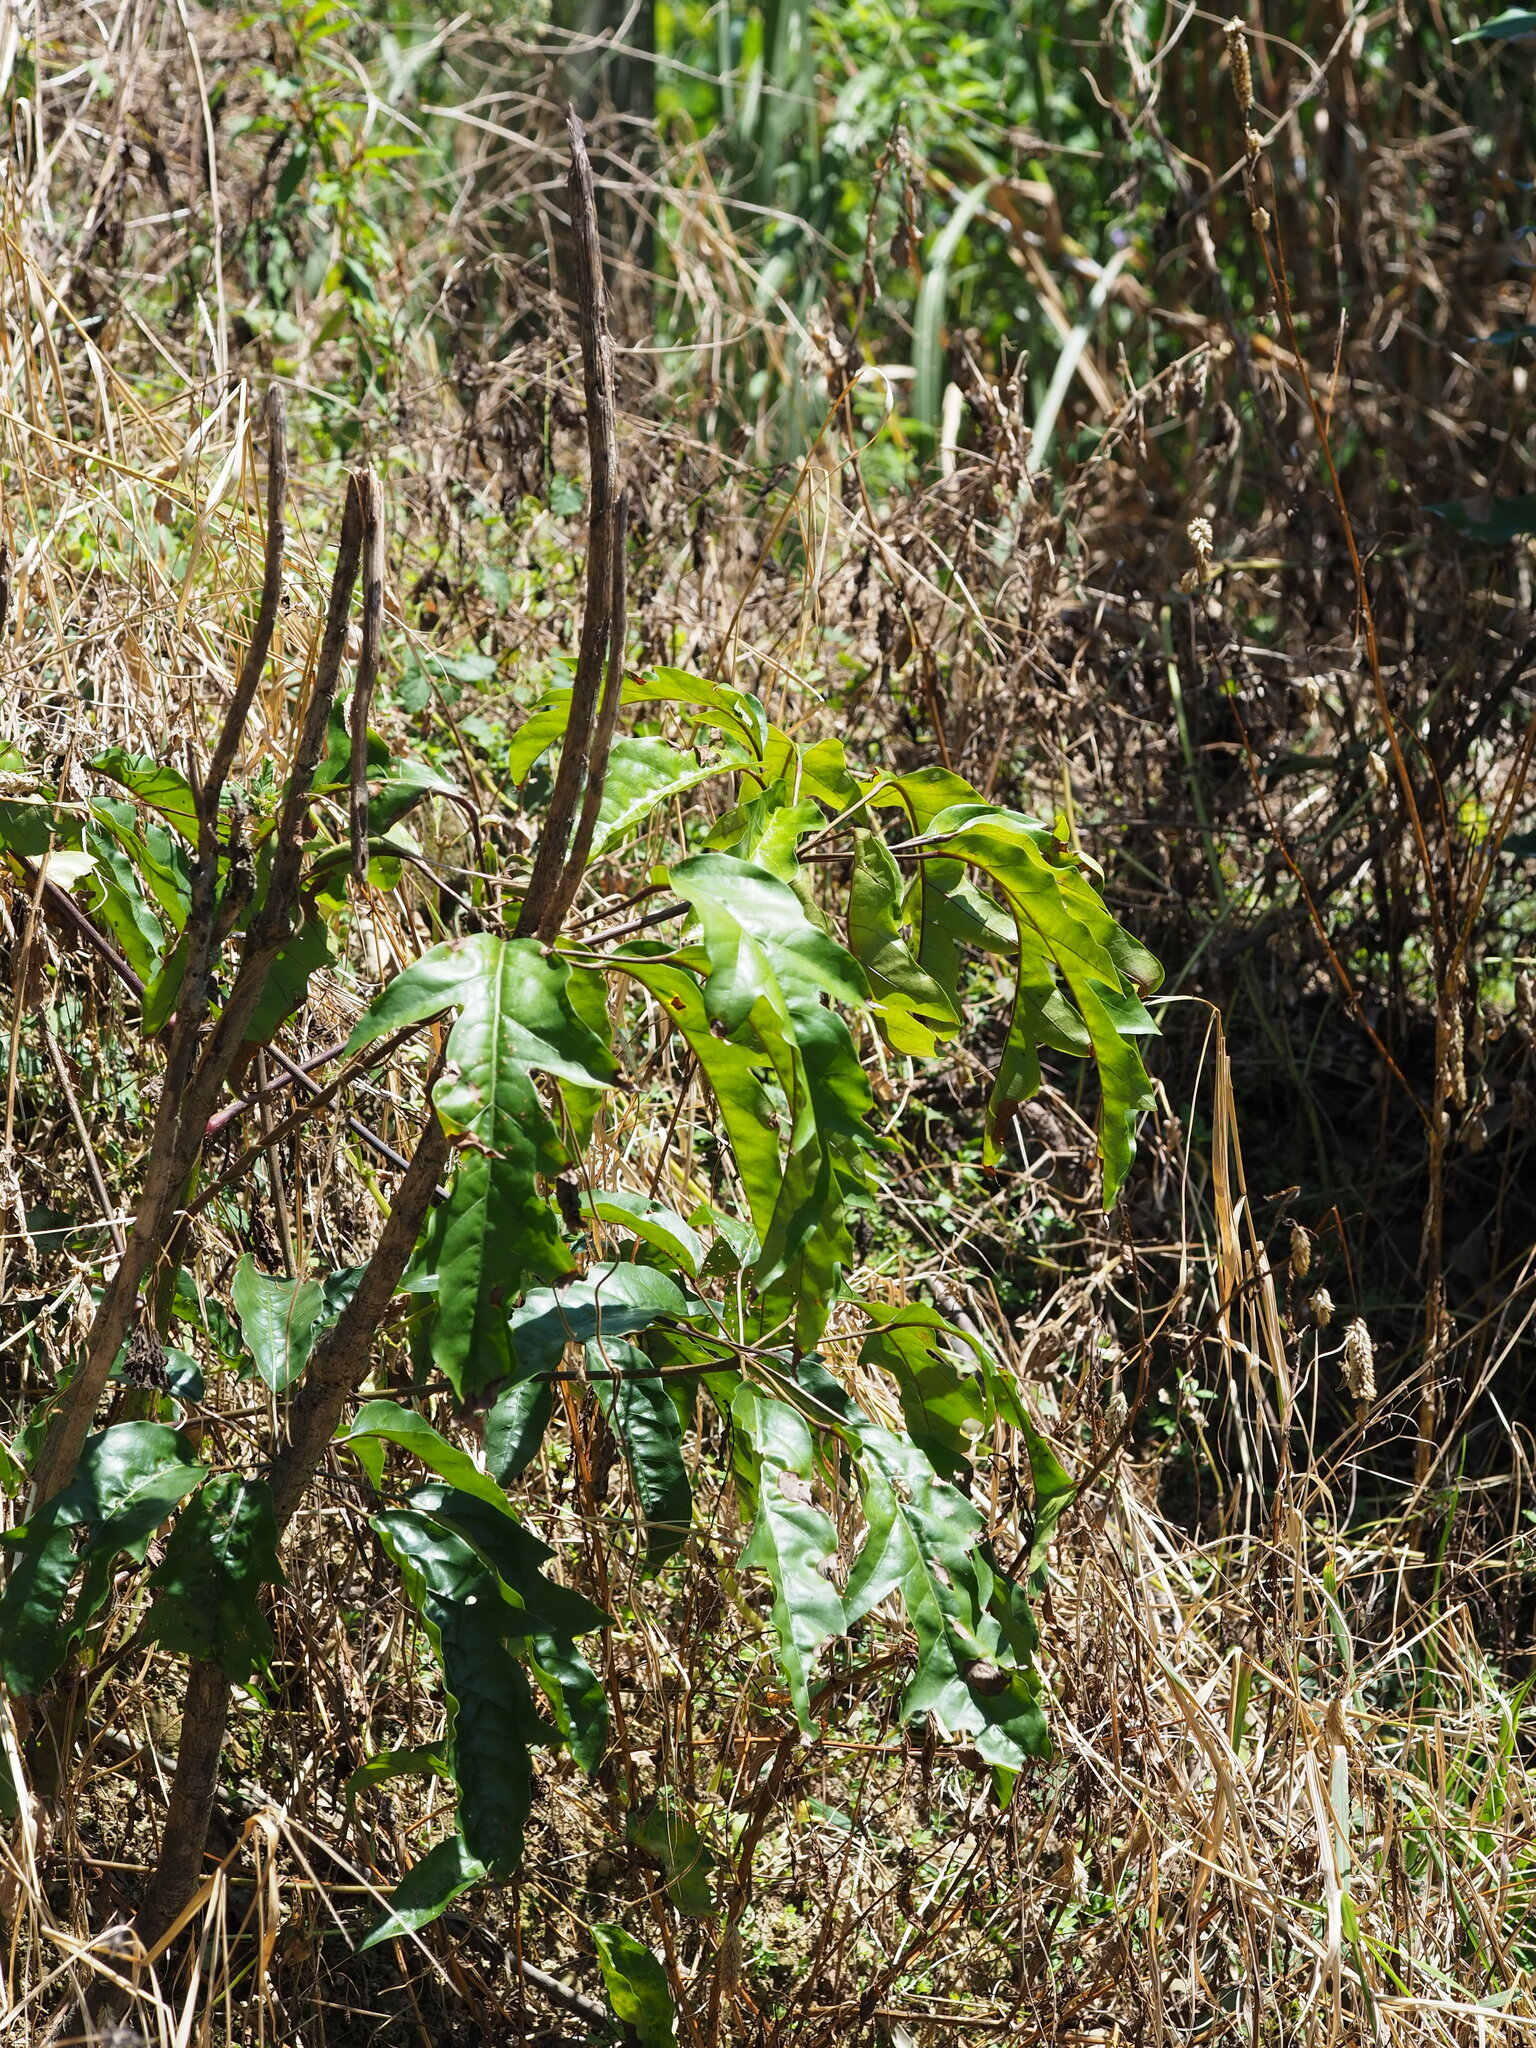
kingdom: Plantae
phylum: Tracheophyta
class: Magnoliopsida
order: Apiales
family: Araliaceae
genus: Heptapleurum
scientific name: Heptapleurum heptaphyllum
